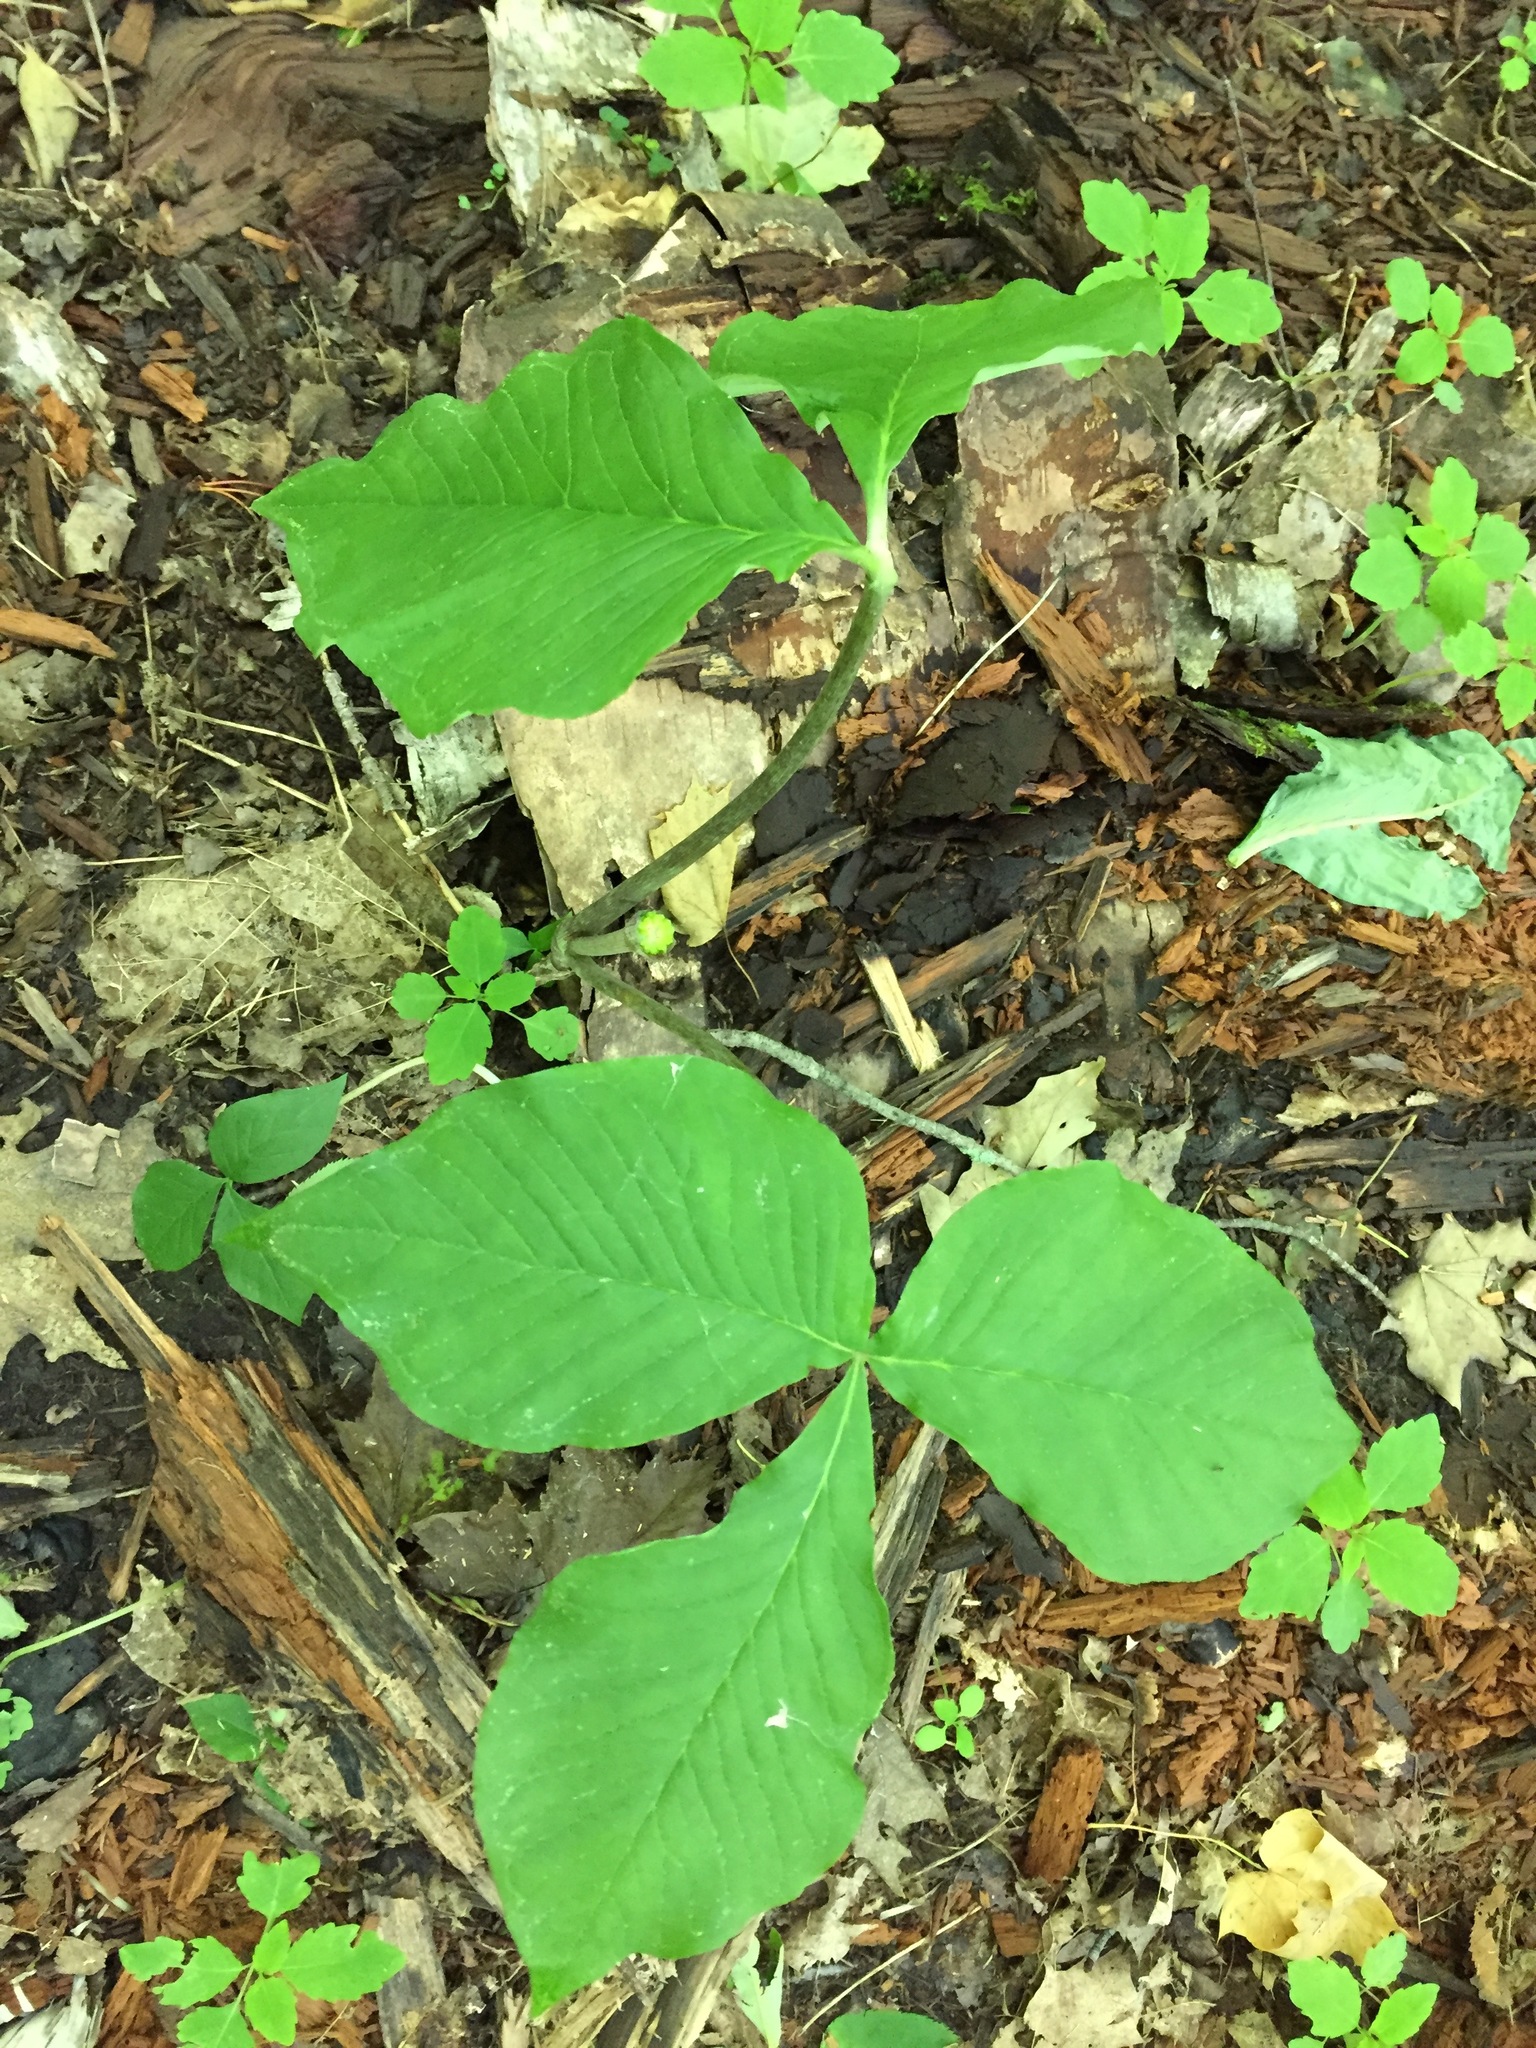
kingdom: Plantae
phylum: Tracheophyta
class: Liliopsida
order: Alismatales
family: Araceae
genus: Arisaema
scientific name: Arisaema triphyllum
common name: Jack-in-the-pulpit
